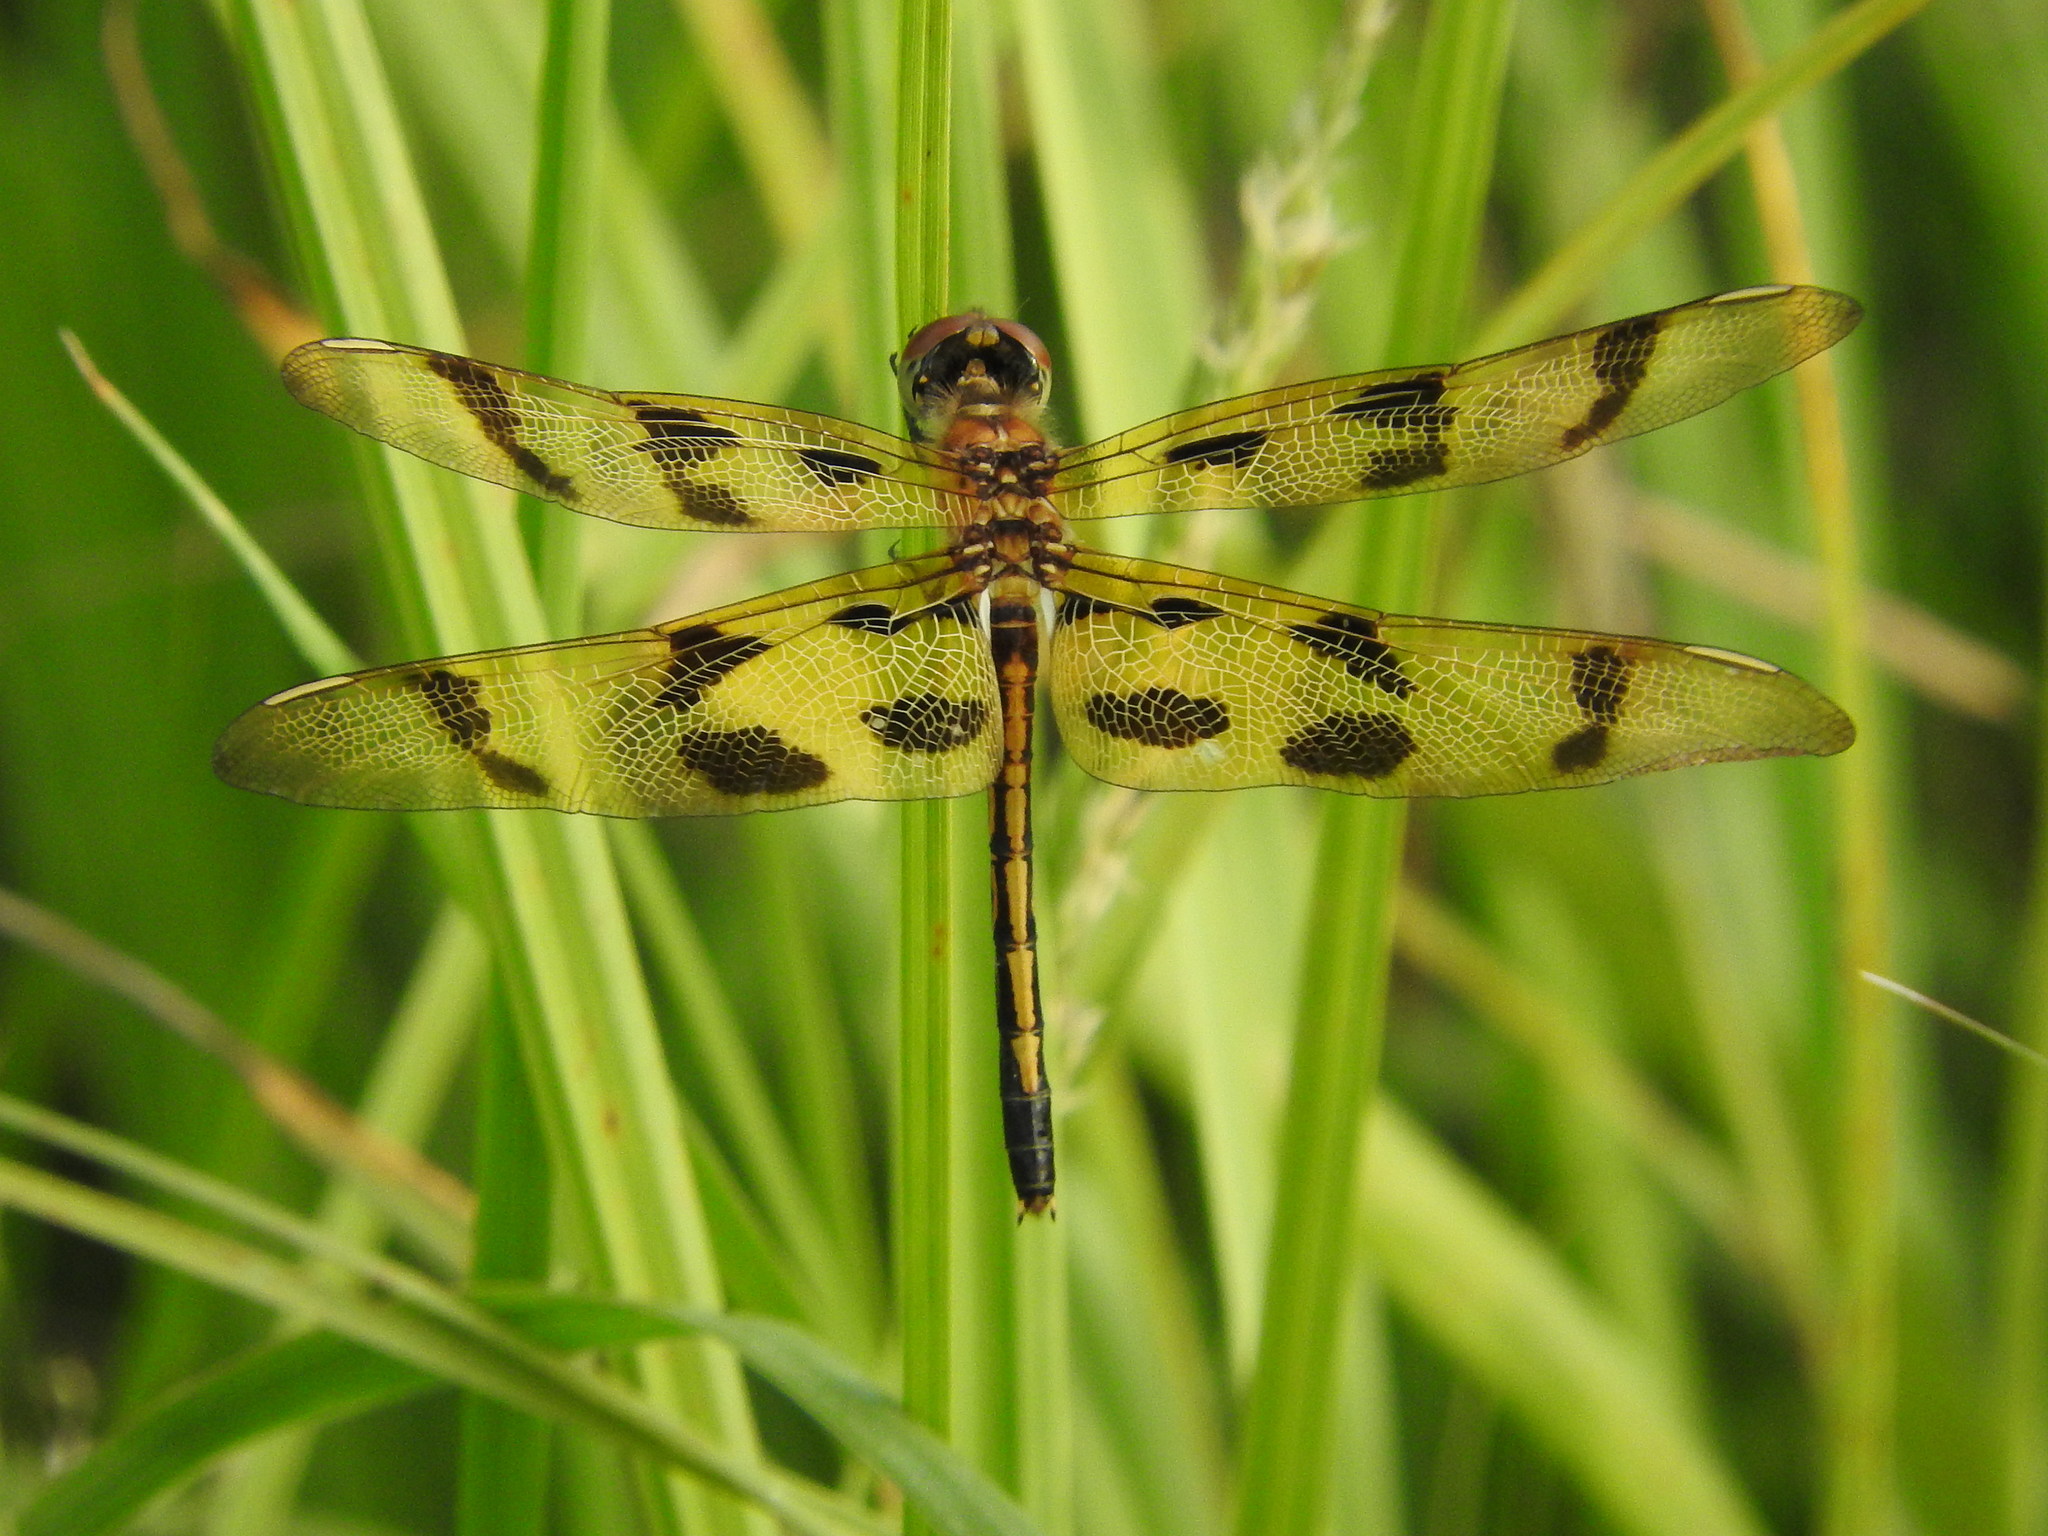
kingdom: Animalia
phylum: Arthropoda
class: Insecta
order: Odonata
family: Libellulidae
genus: Celithemis
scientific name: Celithemis eponina
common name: Halloween pennant
